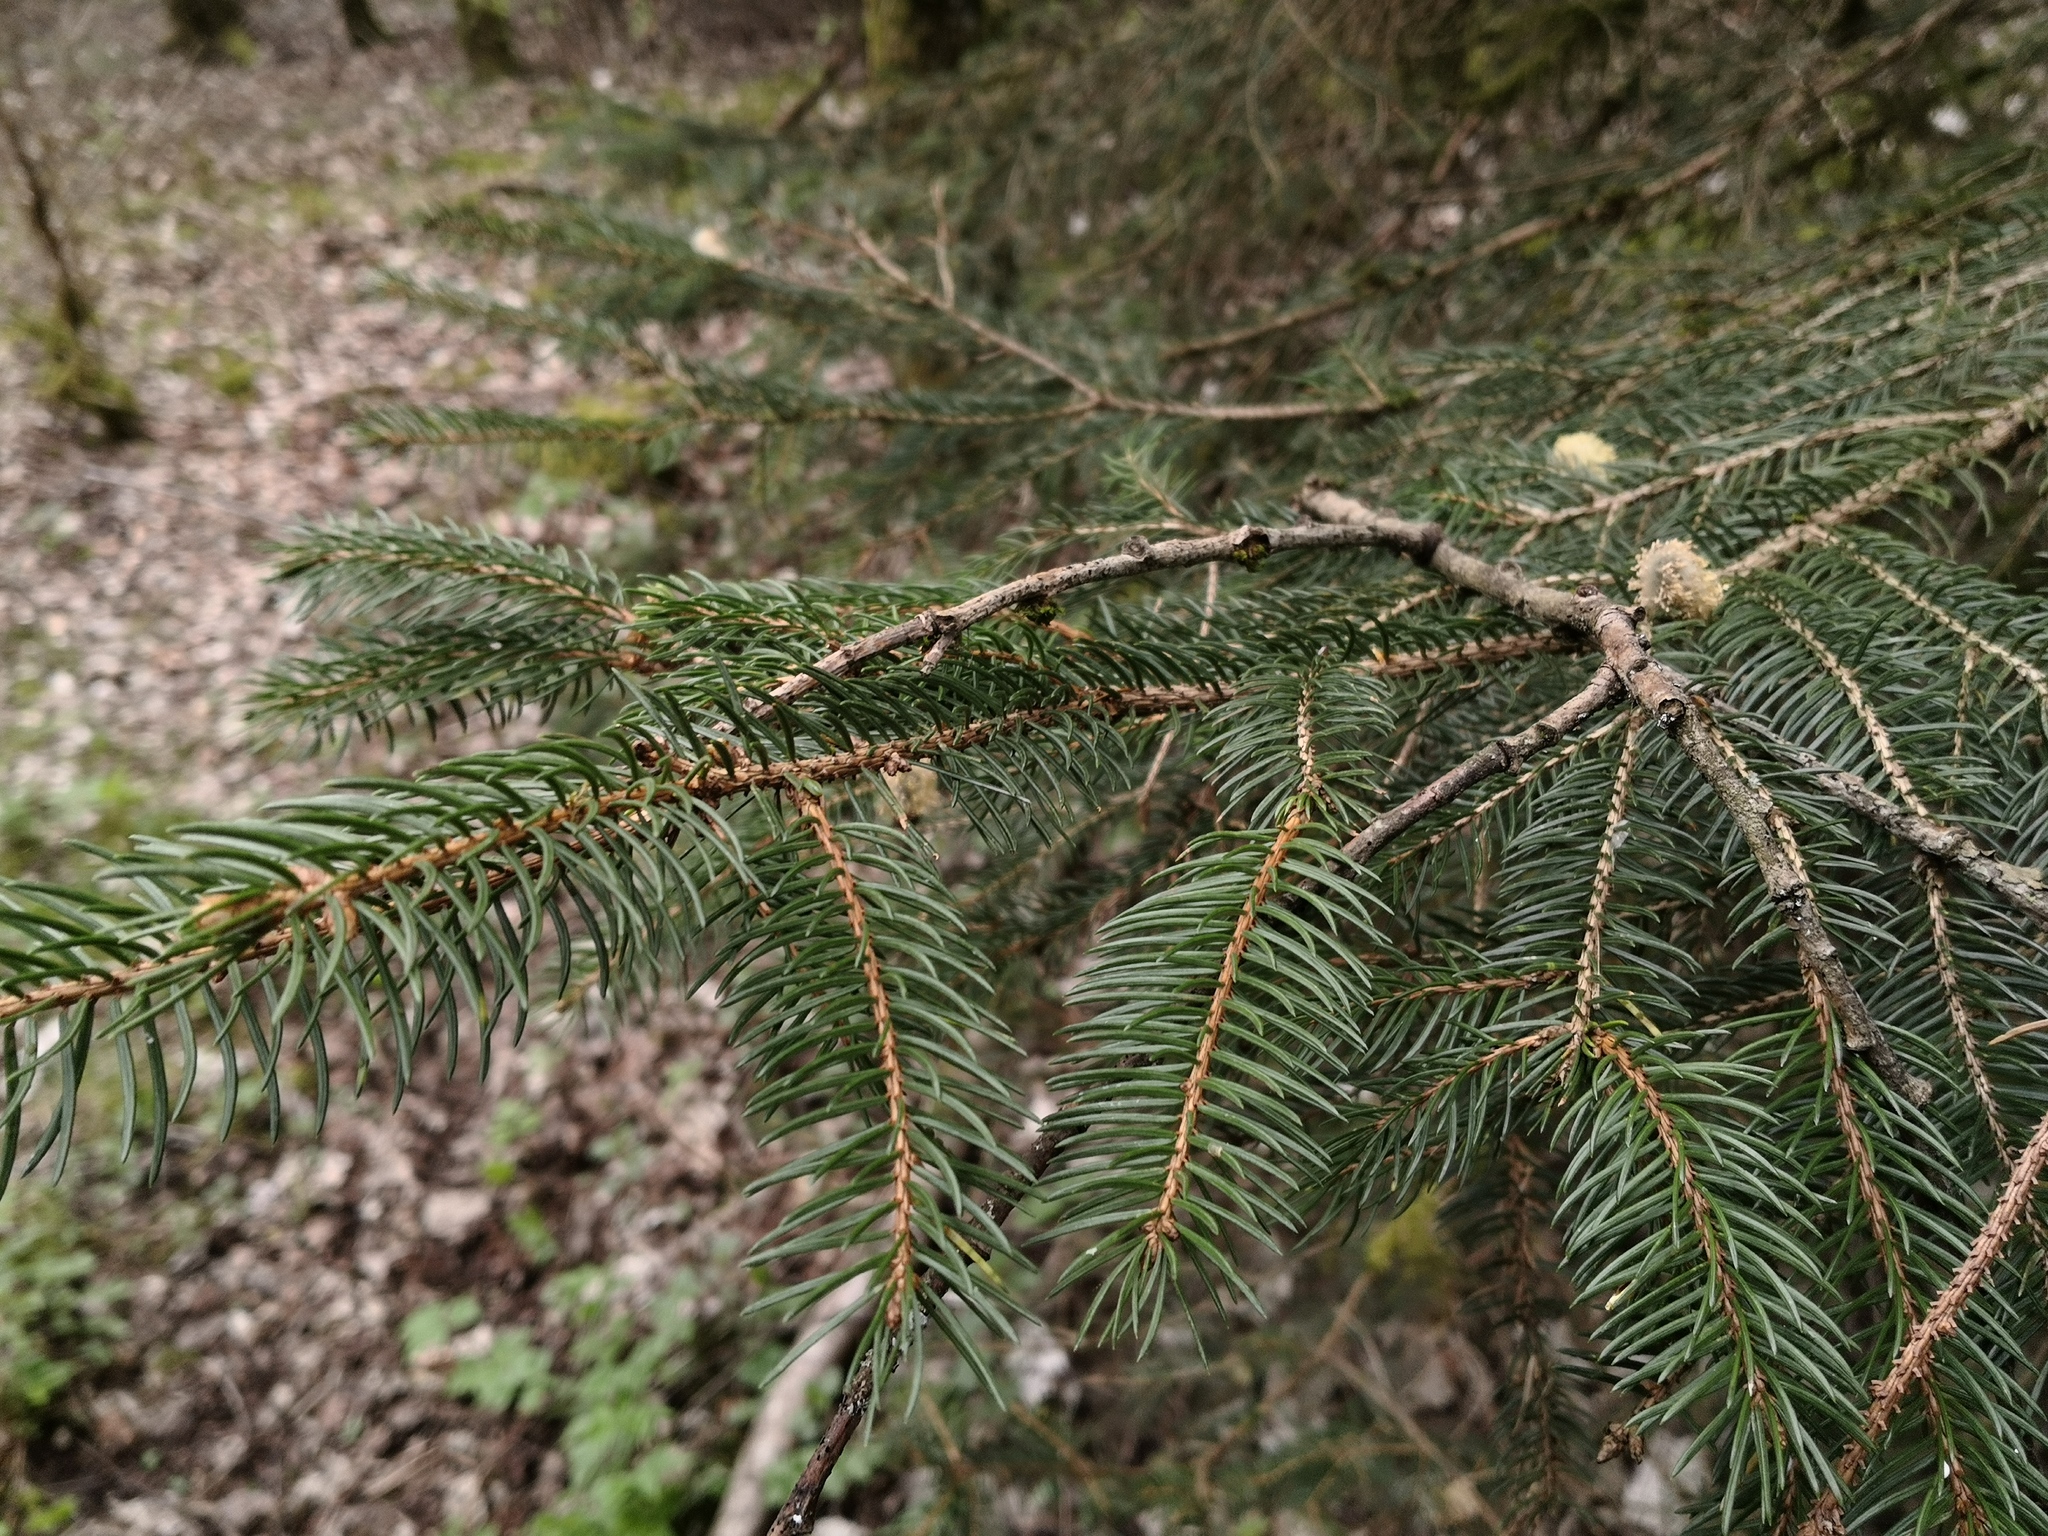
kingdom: Plantae
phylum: Tracheophyta
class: Pinopsida
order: Pinales
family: Pinaceae
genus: Picea
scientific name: Picea abies
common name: Norway spruce
